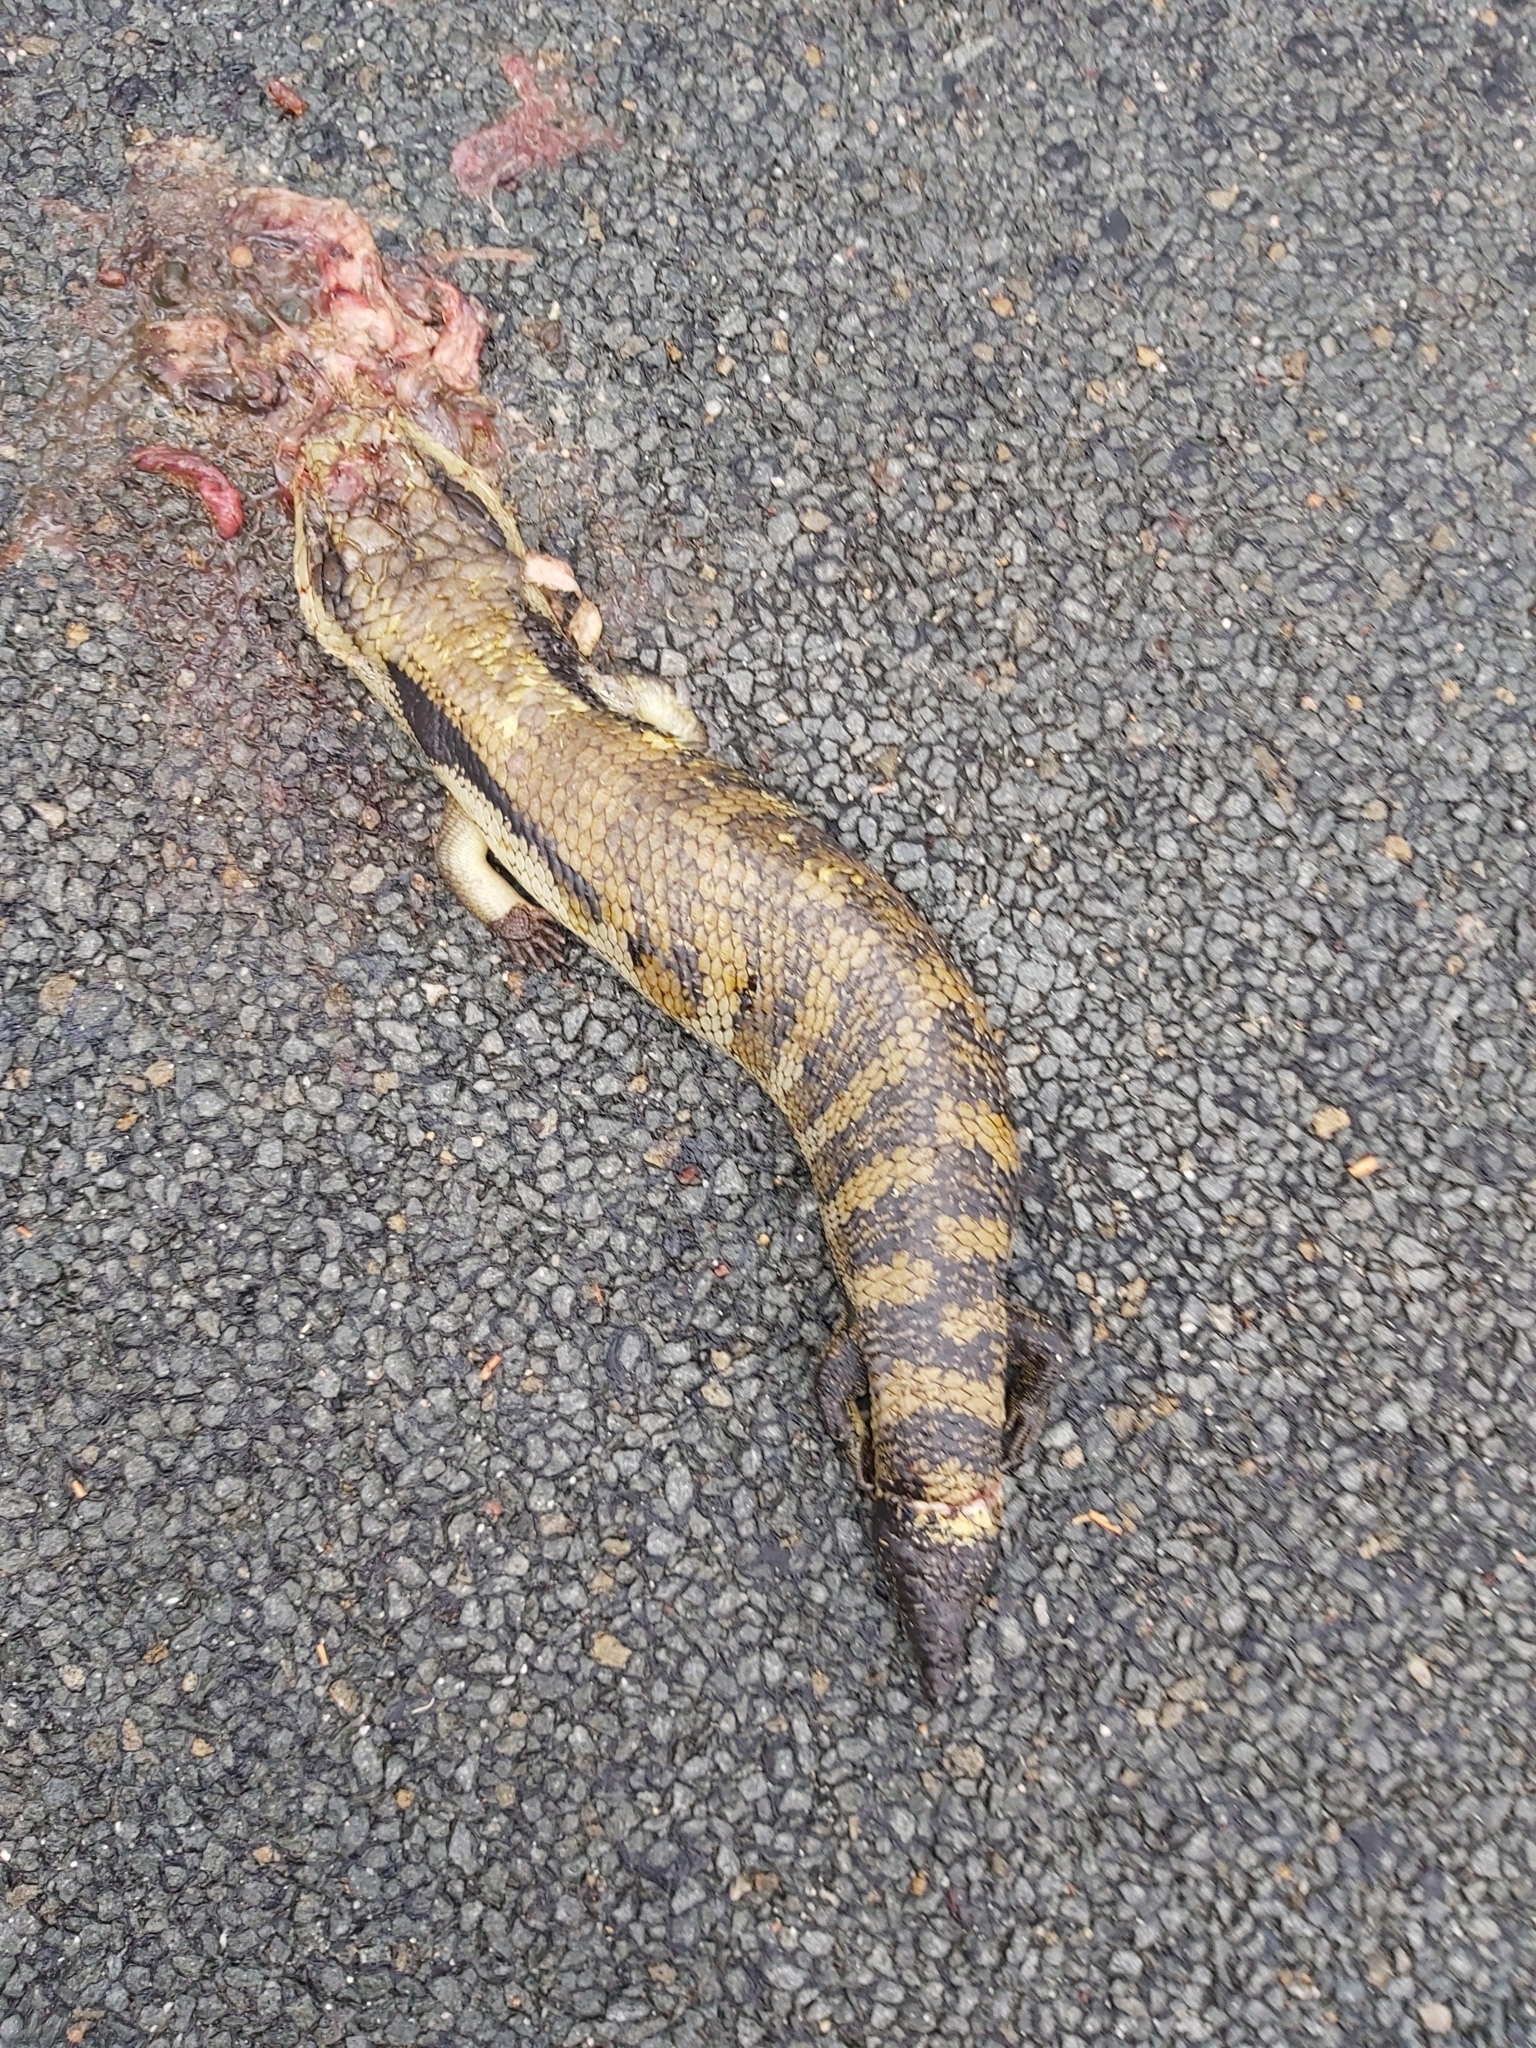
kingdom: Animalia
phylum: Chordata
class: Squamata
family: Scincidae
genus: Tiliqua
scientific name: Tiliqua scincoides
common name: Common bluetongue
